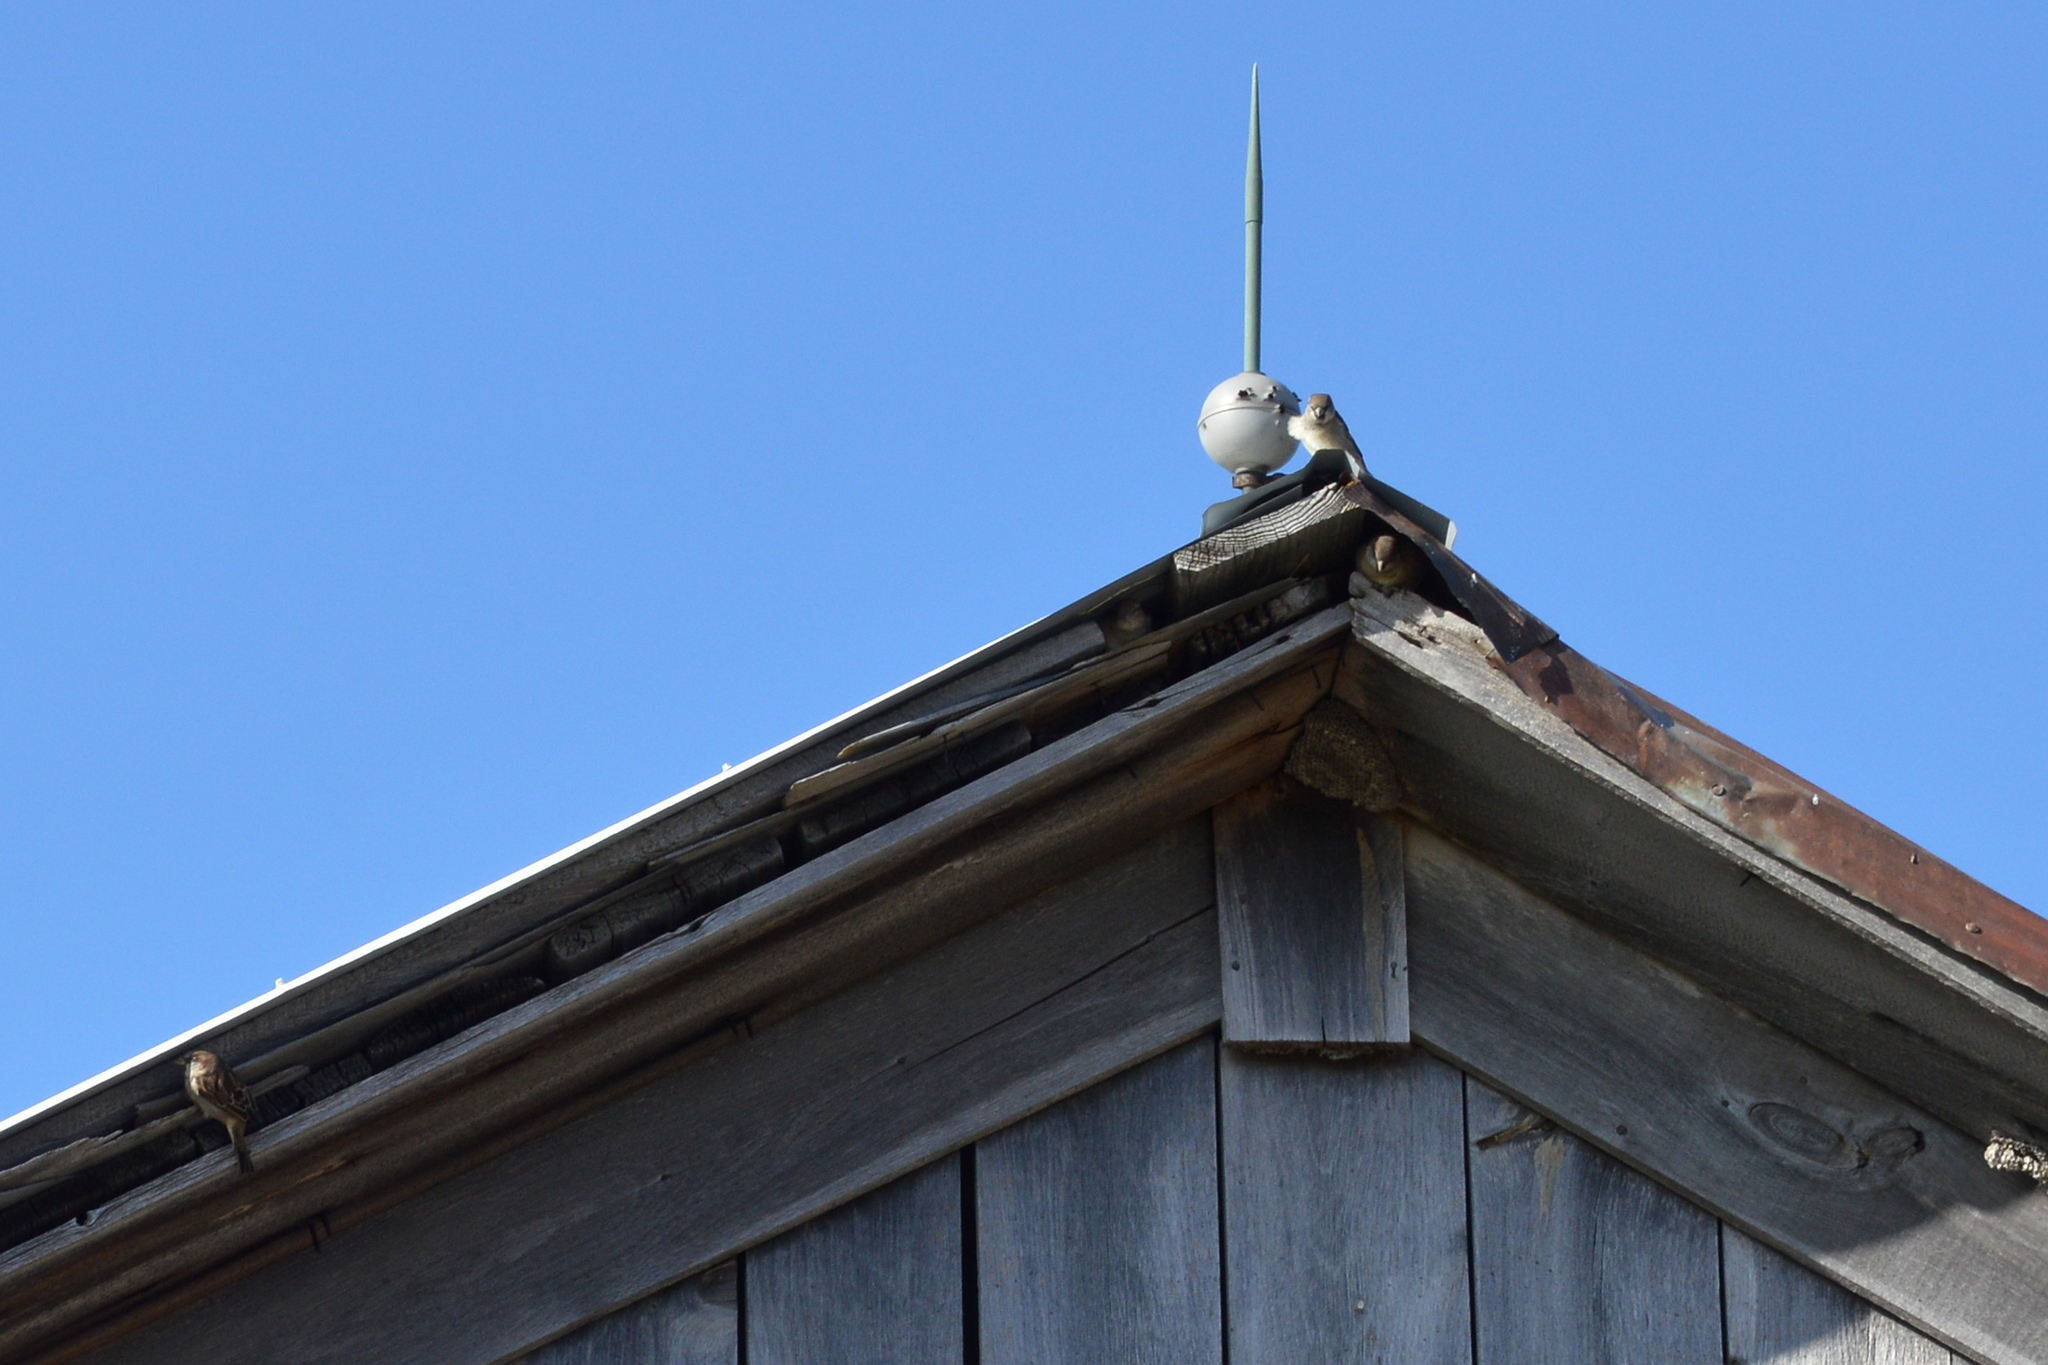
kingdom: Animalia
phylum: Chordata
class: Aves
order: Passeriformes
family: Passeridae
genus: Passer
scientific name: Passer domesticus
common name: House sparrow
